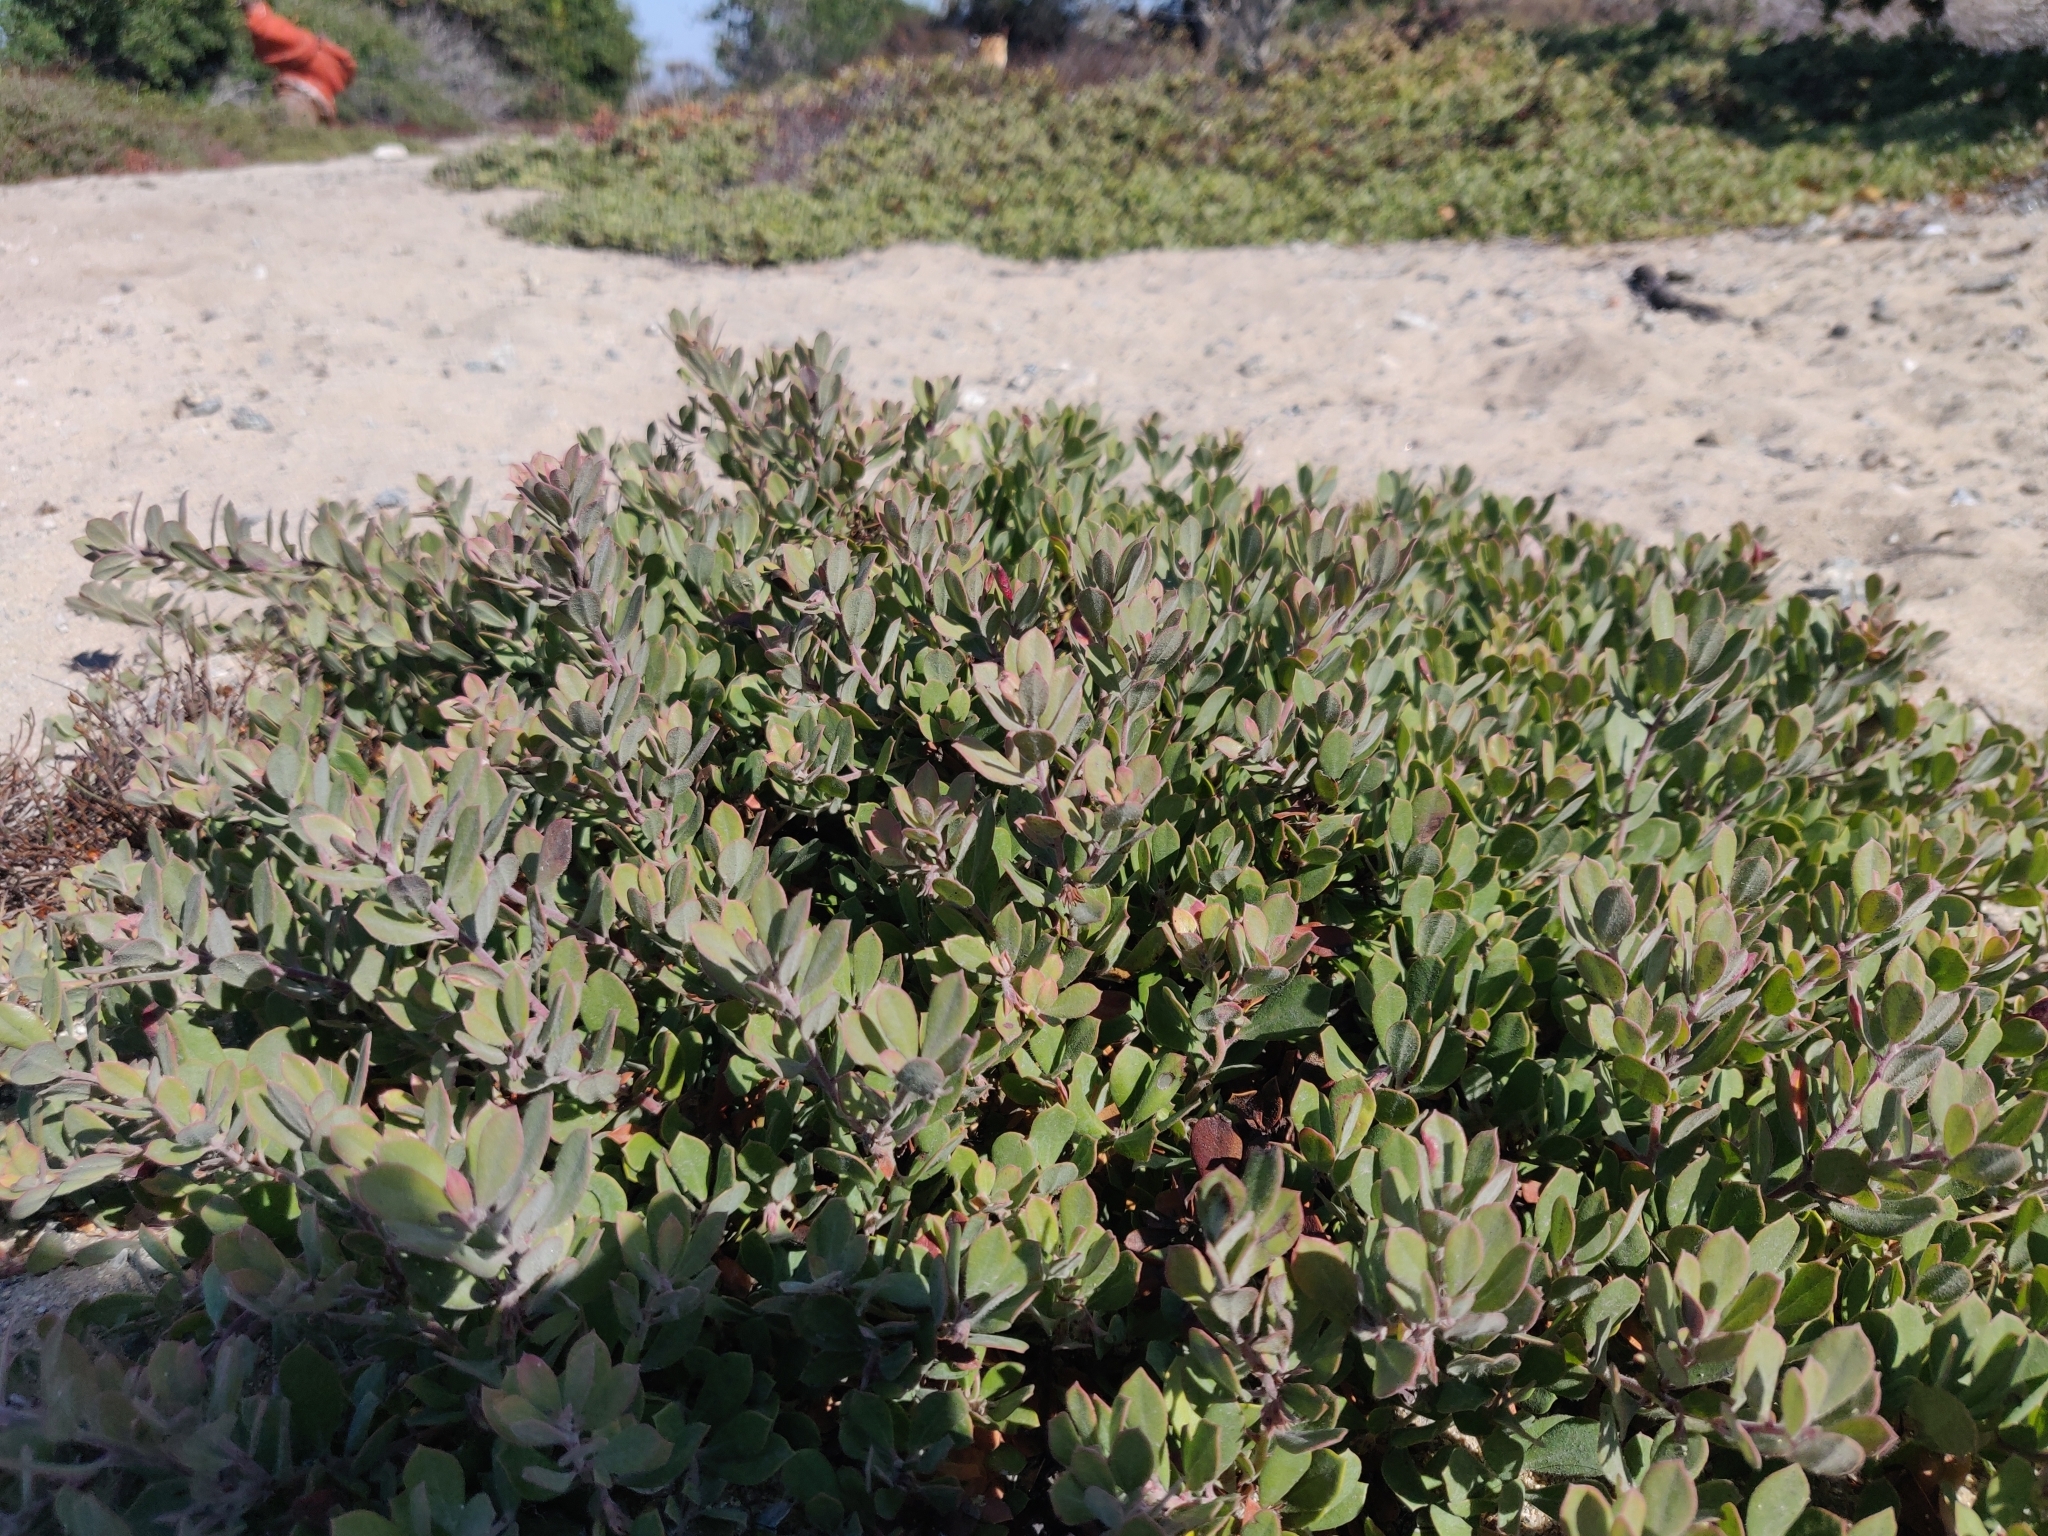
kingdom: Plantae
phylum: Tracheophyta
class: Magnoliopsida
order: Ericales
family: Ericaceae
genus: Arctostaphylos
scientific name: Arctostaphylos pumila
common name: Sandmat manzanita
